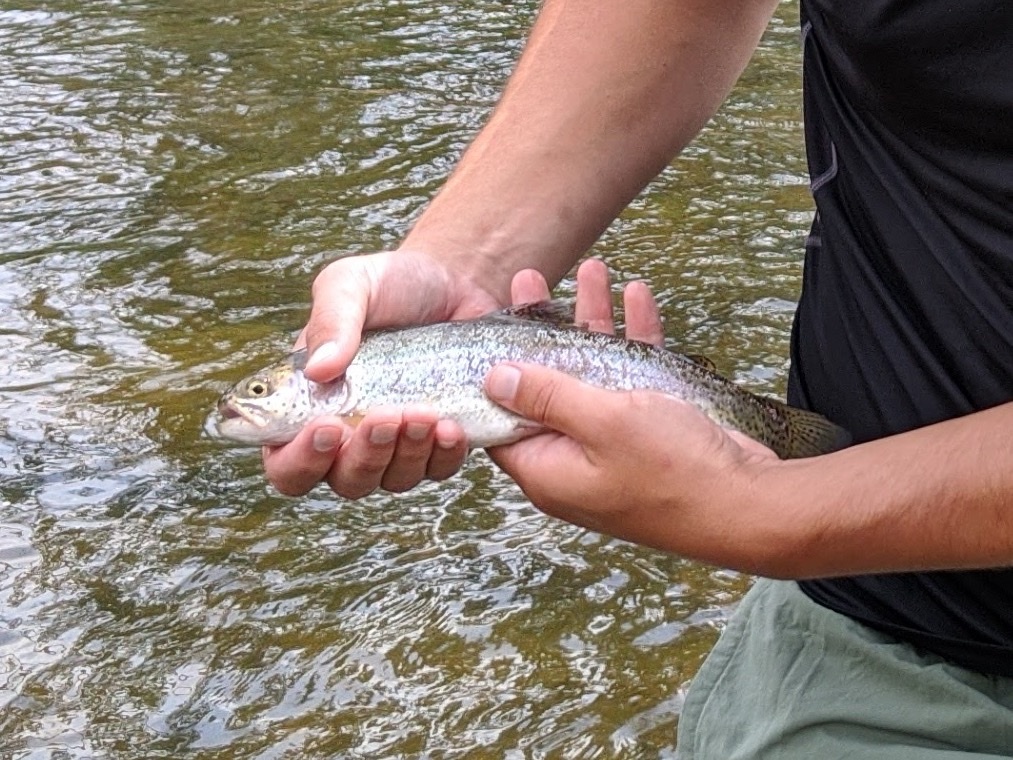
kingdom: Animalia
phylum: Chordata
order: Salmoniformes
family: Salmonidae
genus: Oncorhynchus
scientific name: Oncorhynchus mykiss
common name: Rainbow trout
